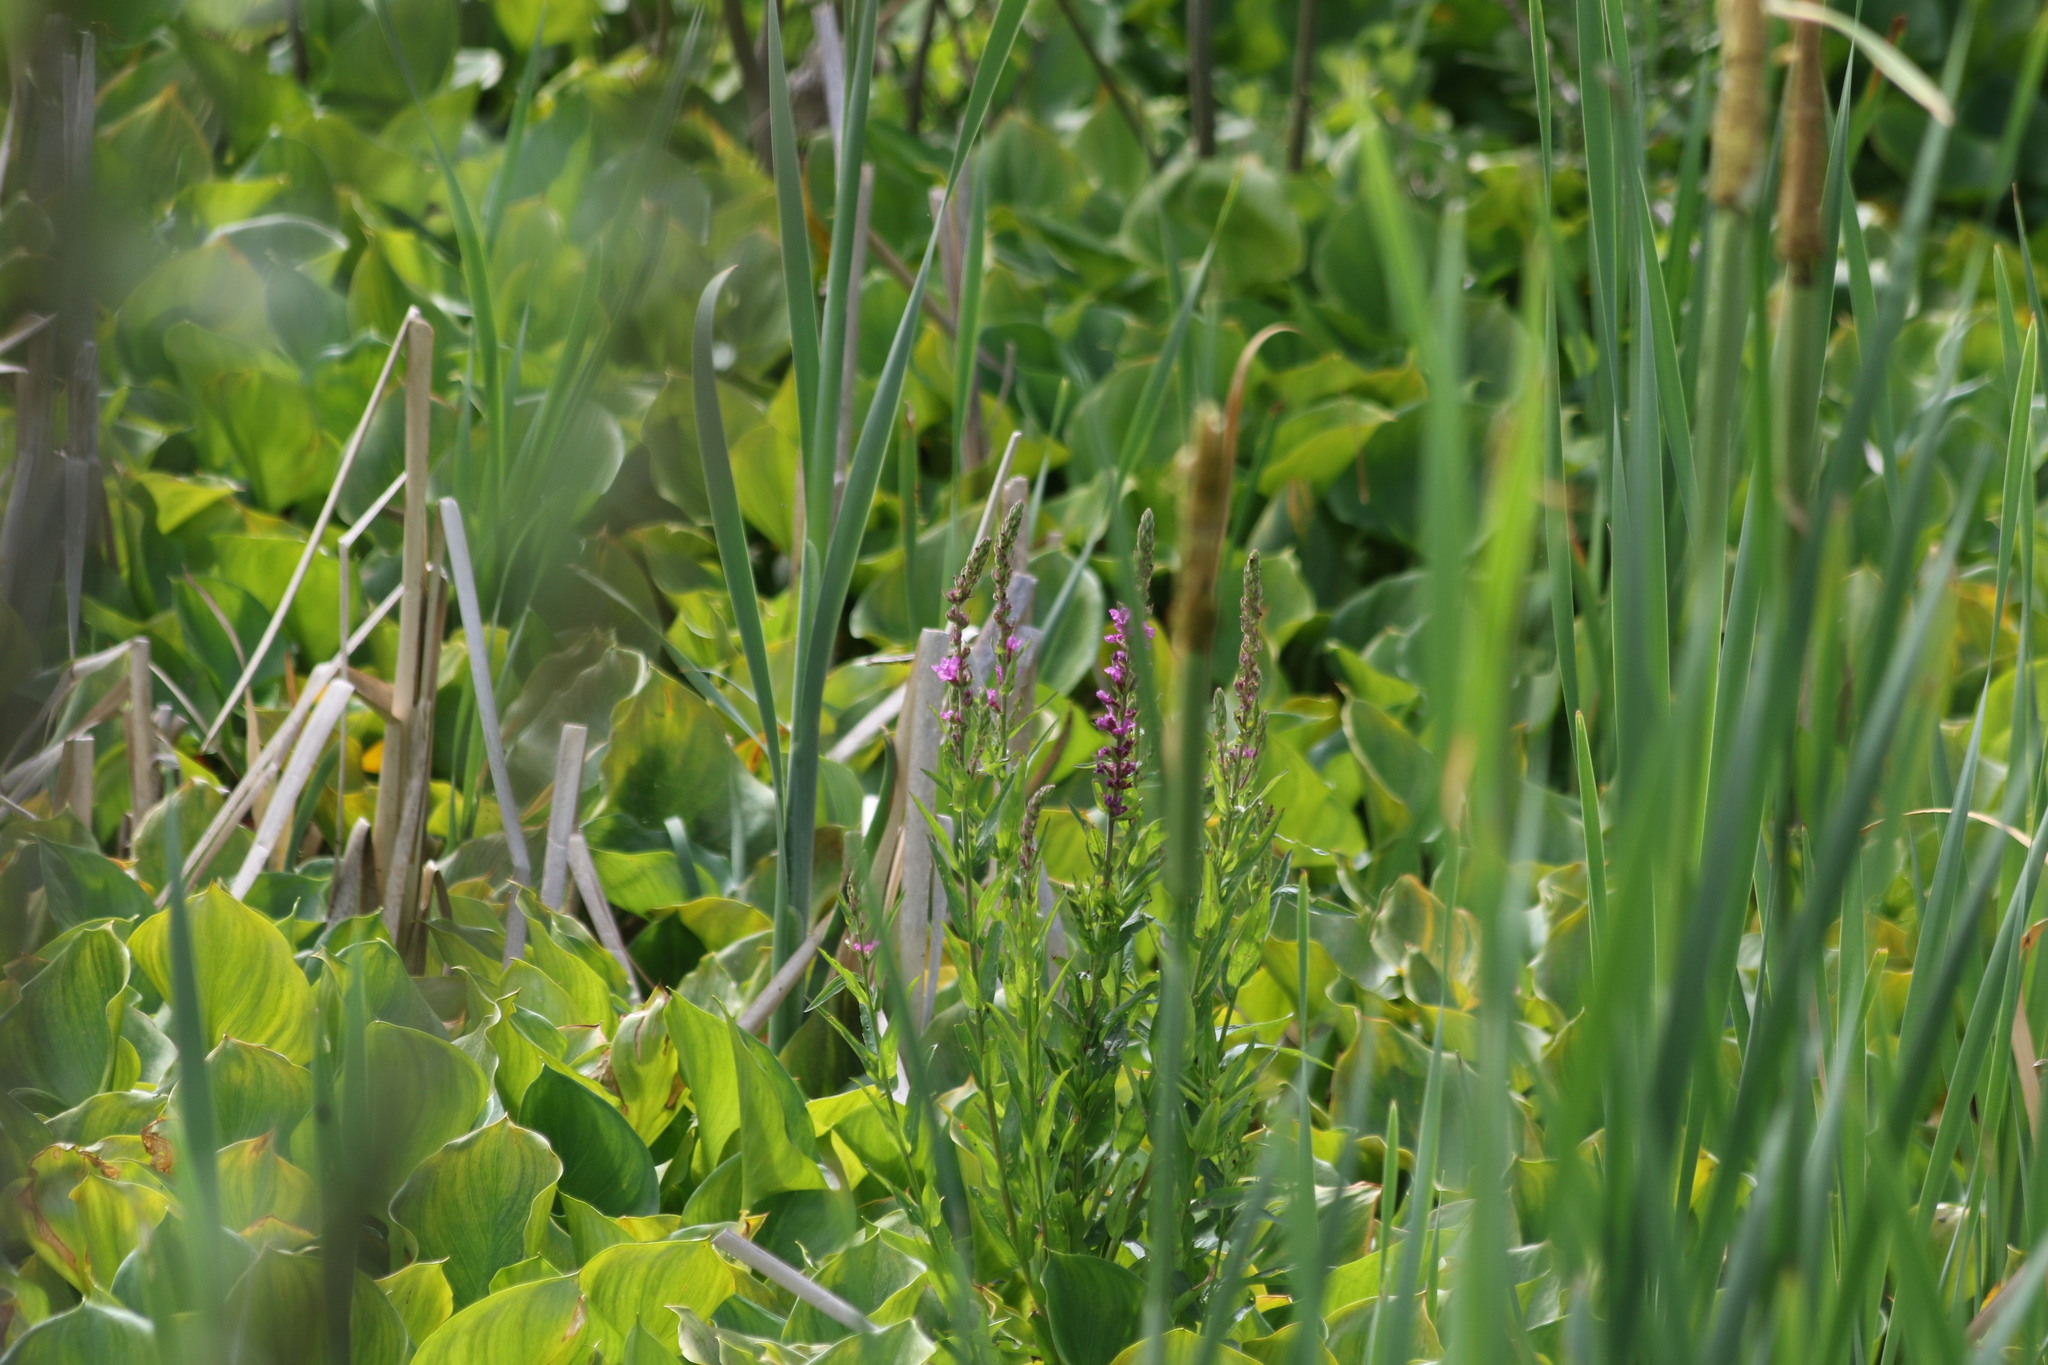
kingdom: Plantae
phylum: Tracheophyta
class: Magnoliopsida
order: Myrtales
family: Lythraceae
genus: Lythrum
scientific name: Lythrum salicaria
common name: Purple loosestrife
